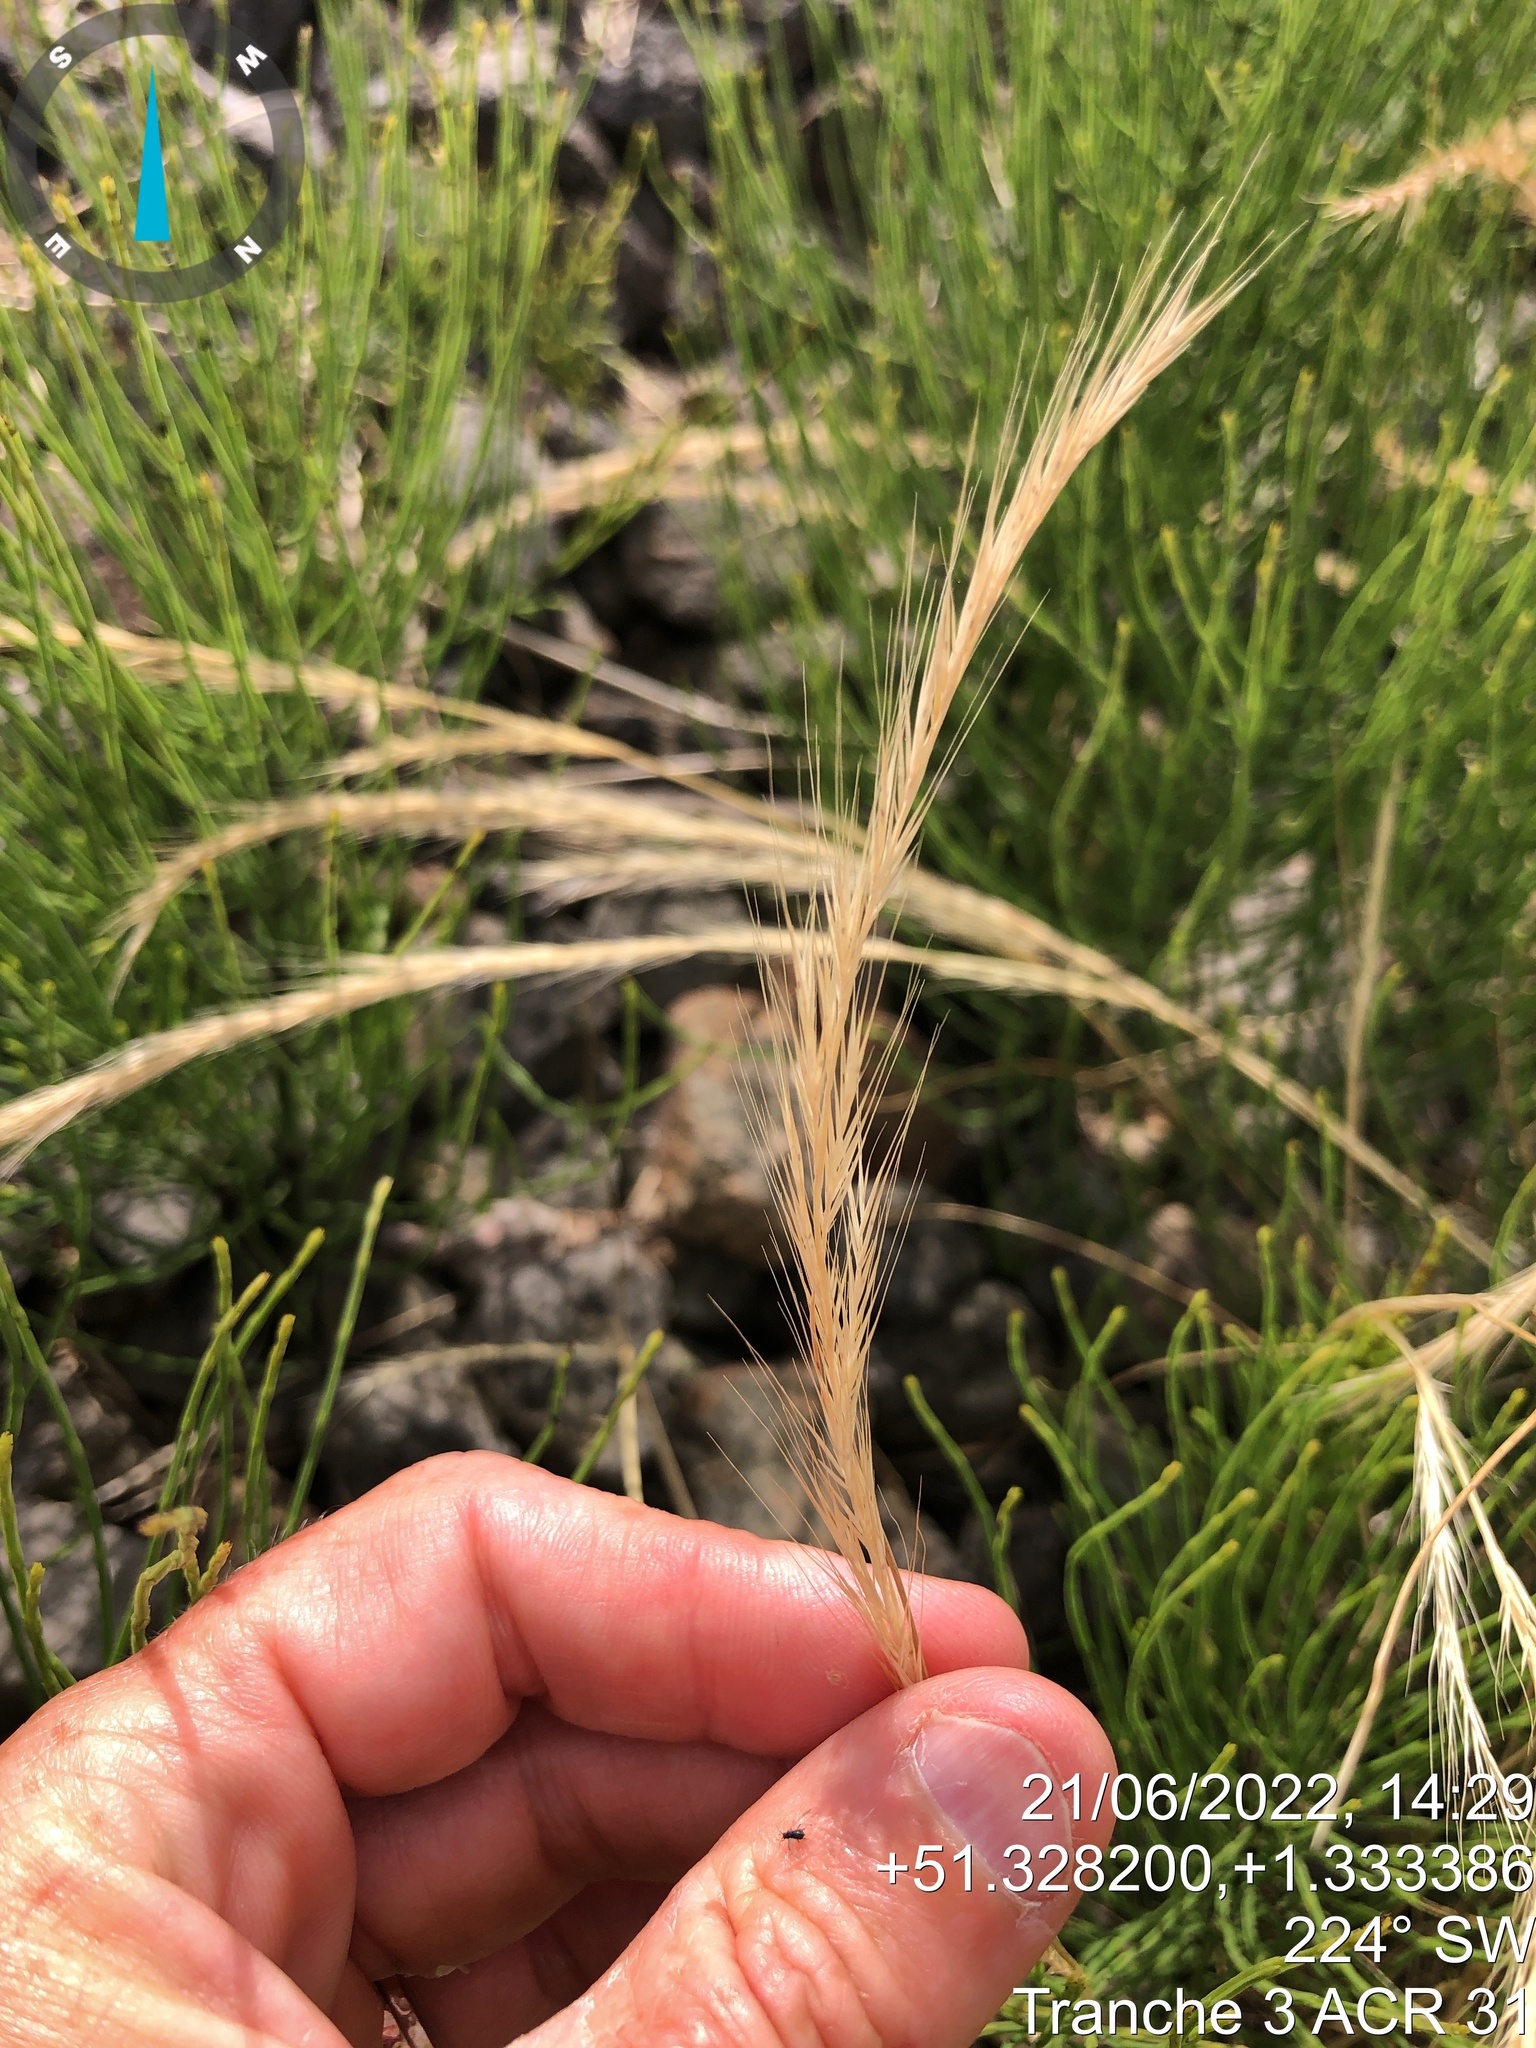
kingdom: Plantae
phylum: Tracheophyta
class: Liliopsida
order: Poales
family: Poaceae
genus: Festuca
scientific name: Festuca myuros
